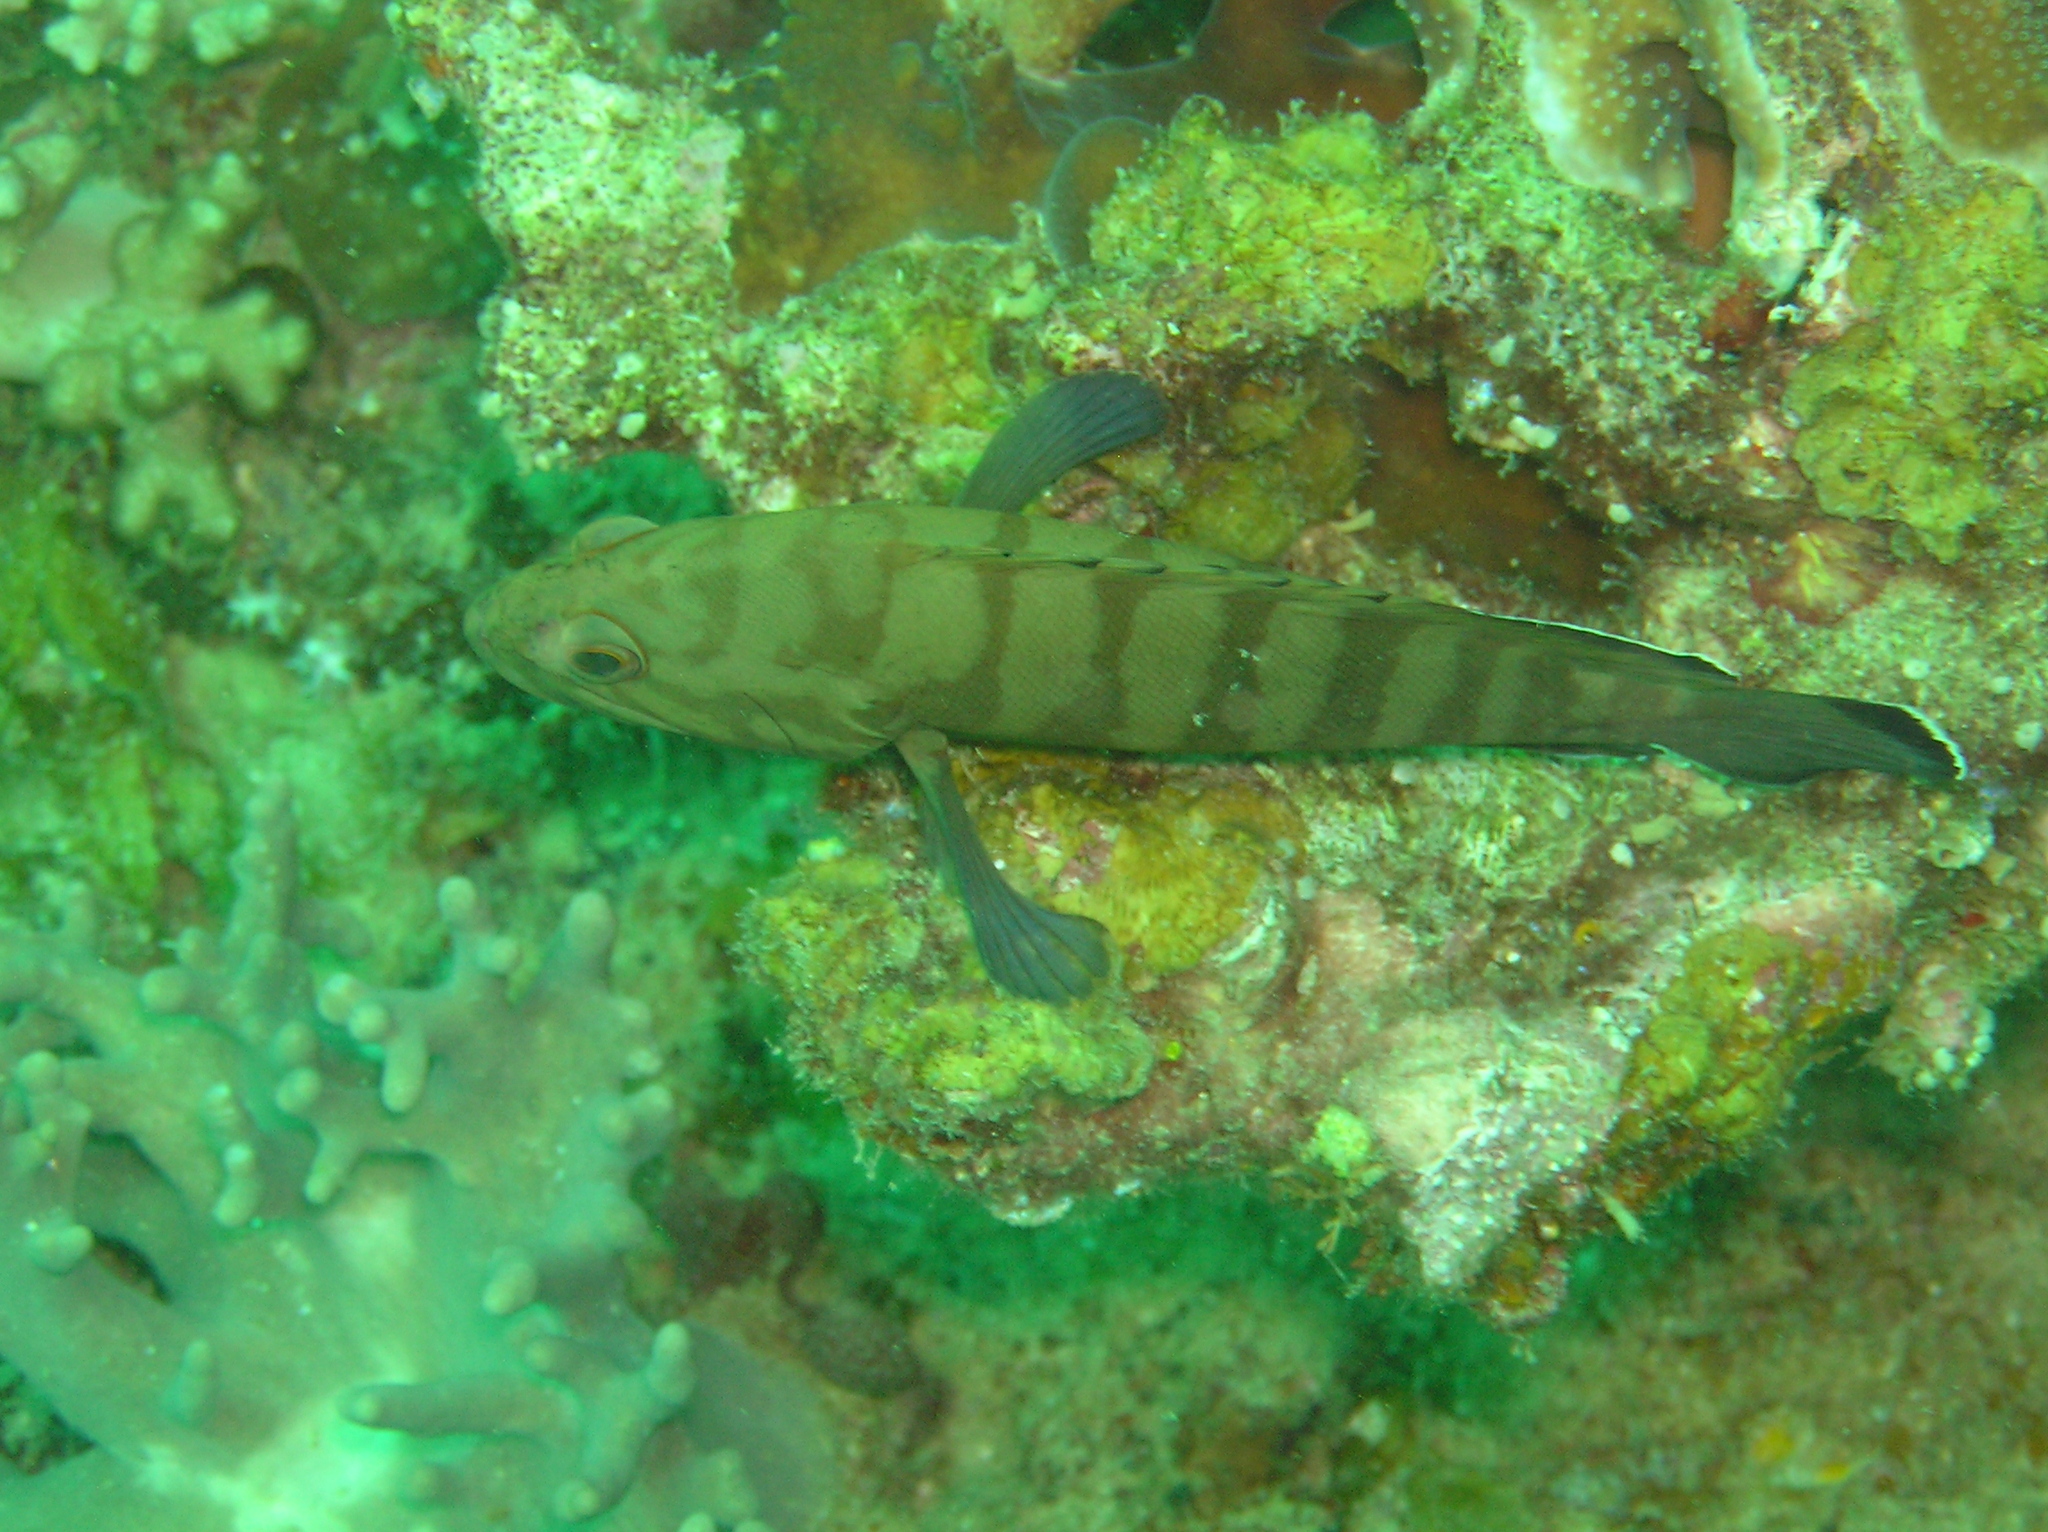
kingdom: Animalia
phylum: Chordata
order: Perciformes
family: Serranidae
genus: Cephalopholis
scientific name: Cephalopholis boenak
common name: Chocolate hind
